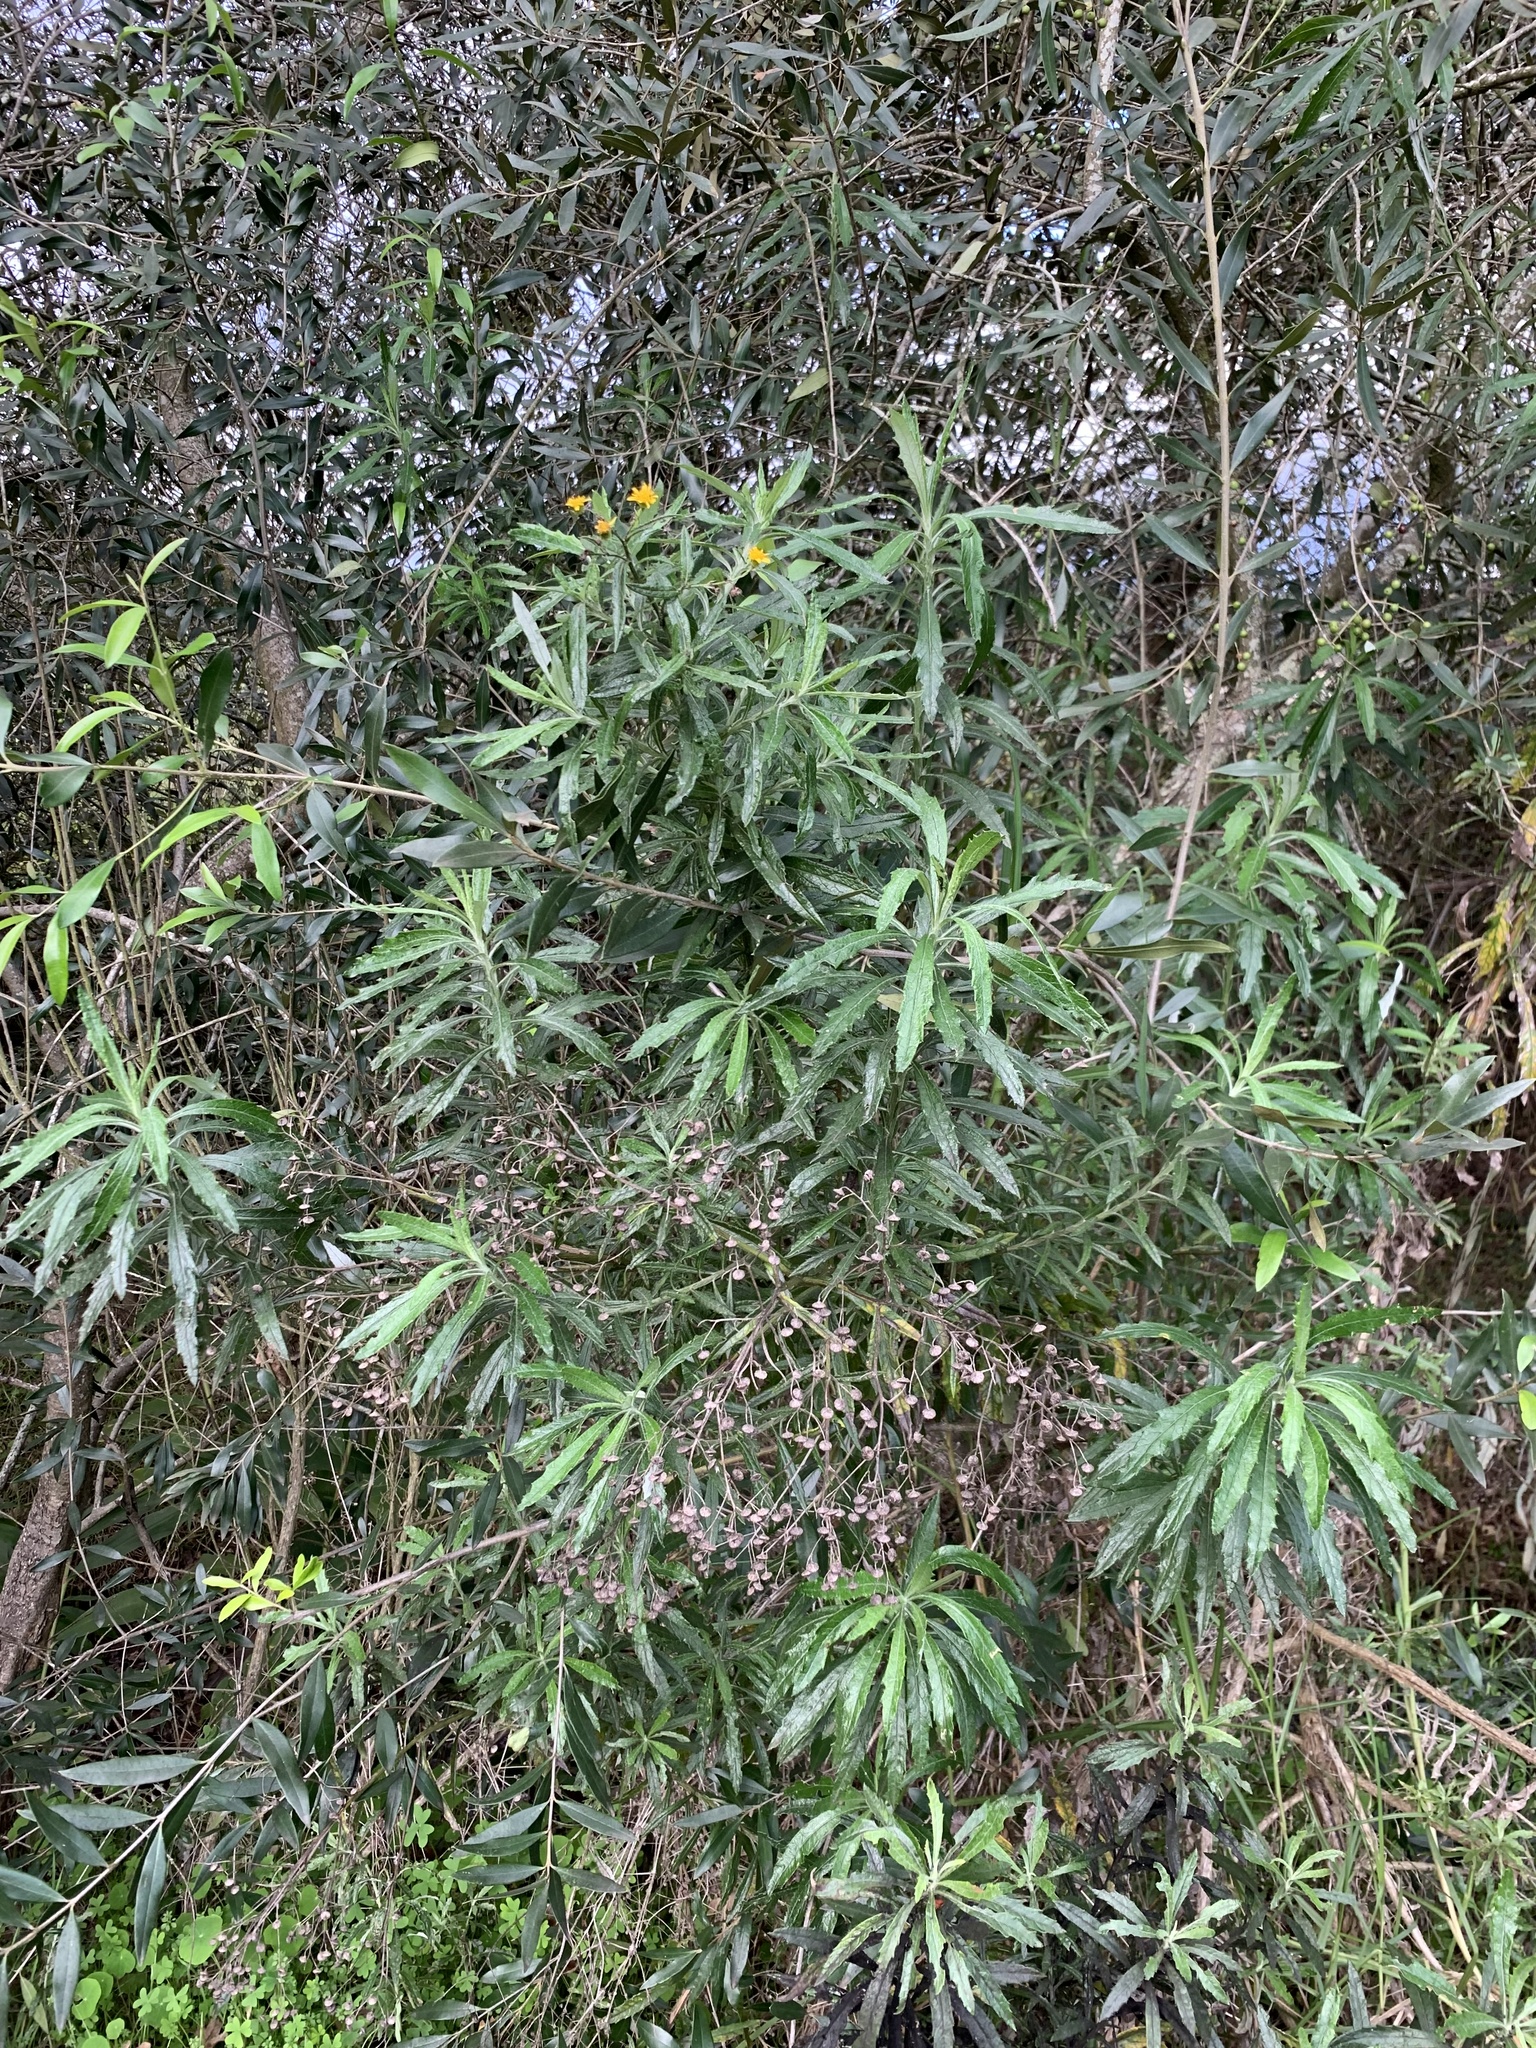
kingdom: Plantae
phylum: Tracheophyta
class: Magnoliopsida
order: Asterales
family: Asteraceae
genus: Senecio
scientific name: Senecio pterophorus
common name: Shoddy ragwort
